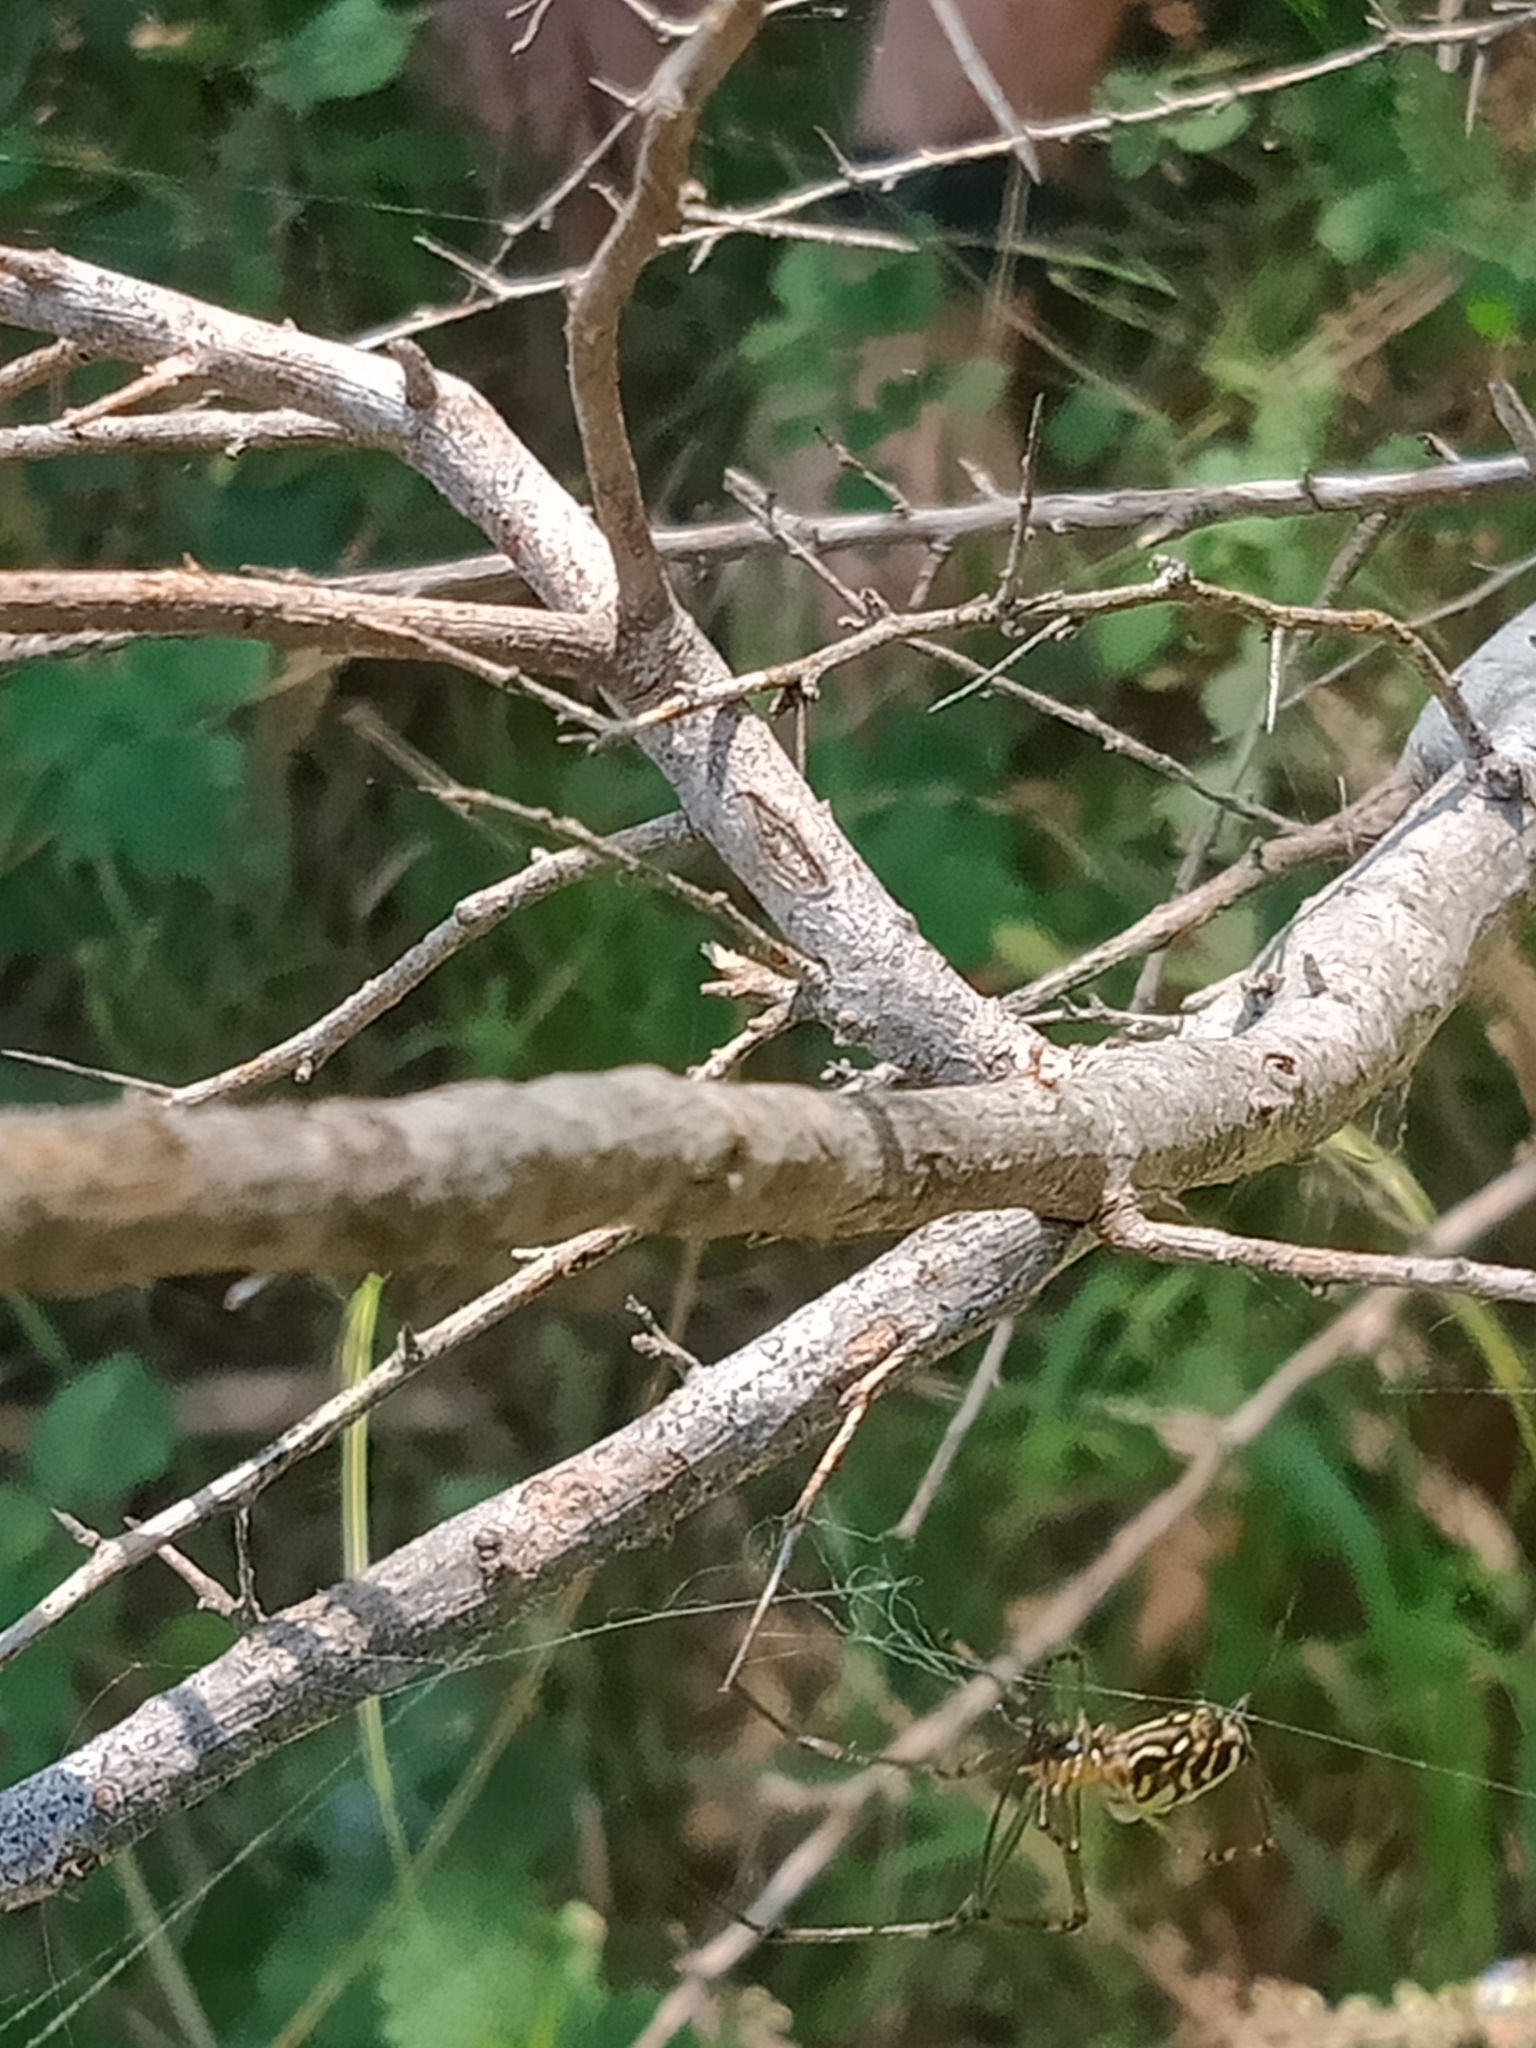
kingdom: Animalia
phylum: Arthropoda
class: Arachnida
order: Araneae
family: Tetragnathidae
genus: Leucauge
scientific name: Leucauge dromedaria
